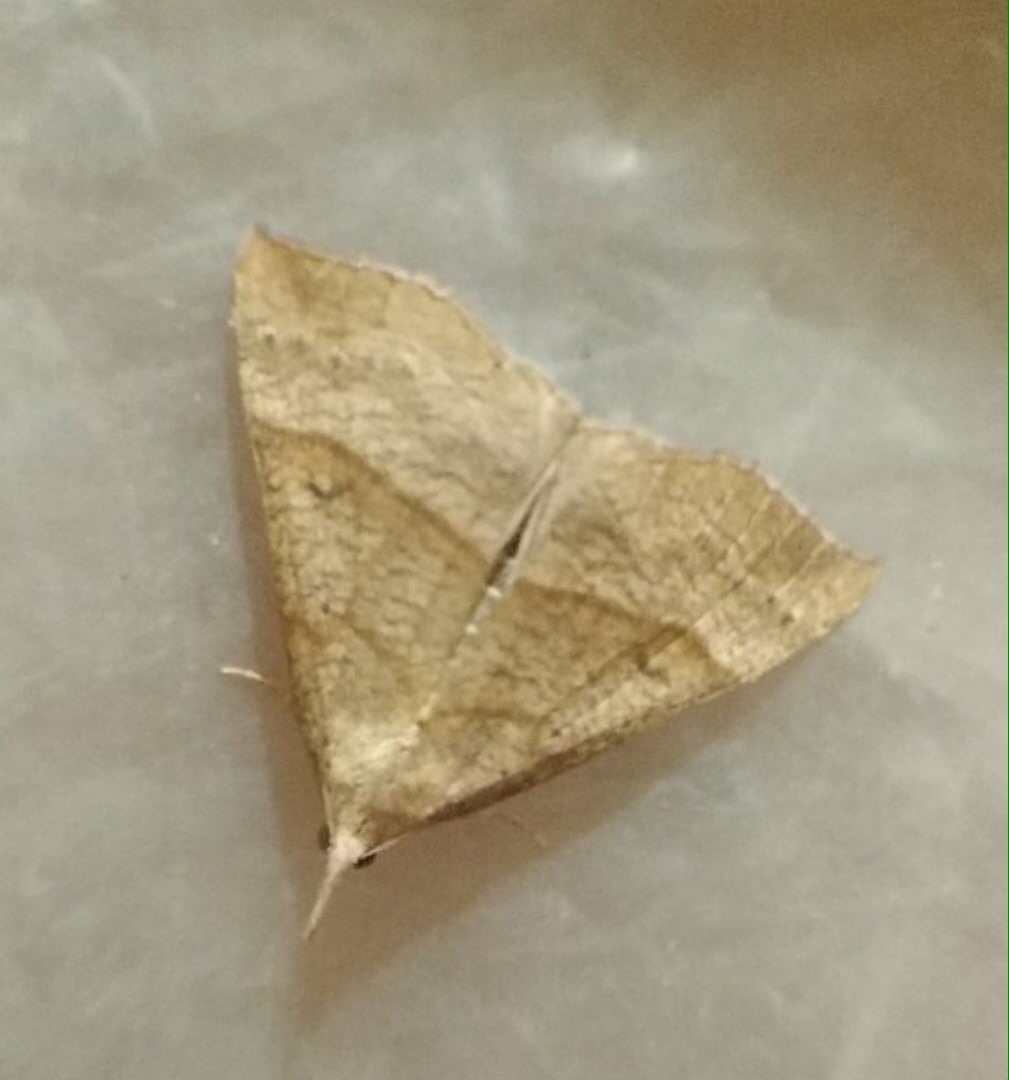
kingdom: Animalia
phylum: Arthropoda
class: Insecta
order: Lepidoptera
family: Erebidae
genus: Hypena
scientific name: Hypena proboscidalis
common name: Snout
